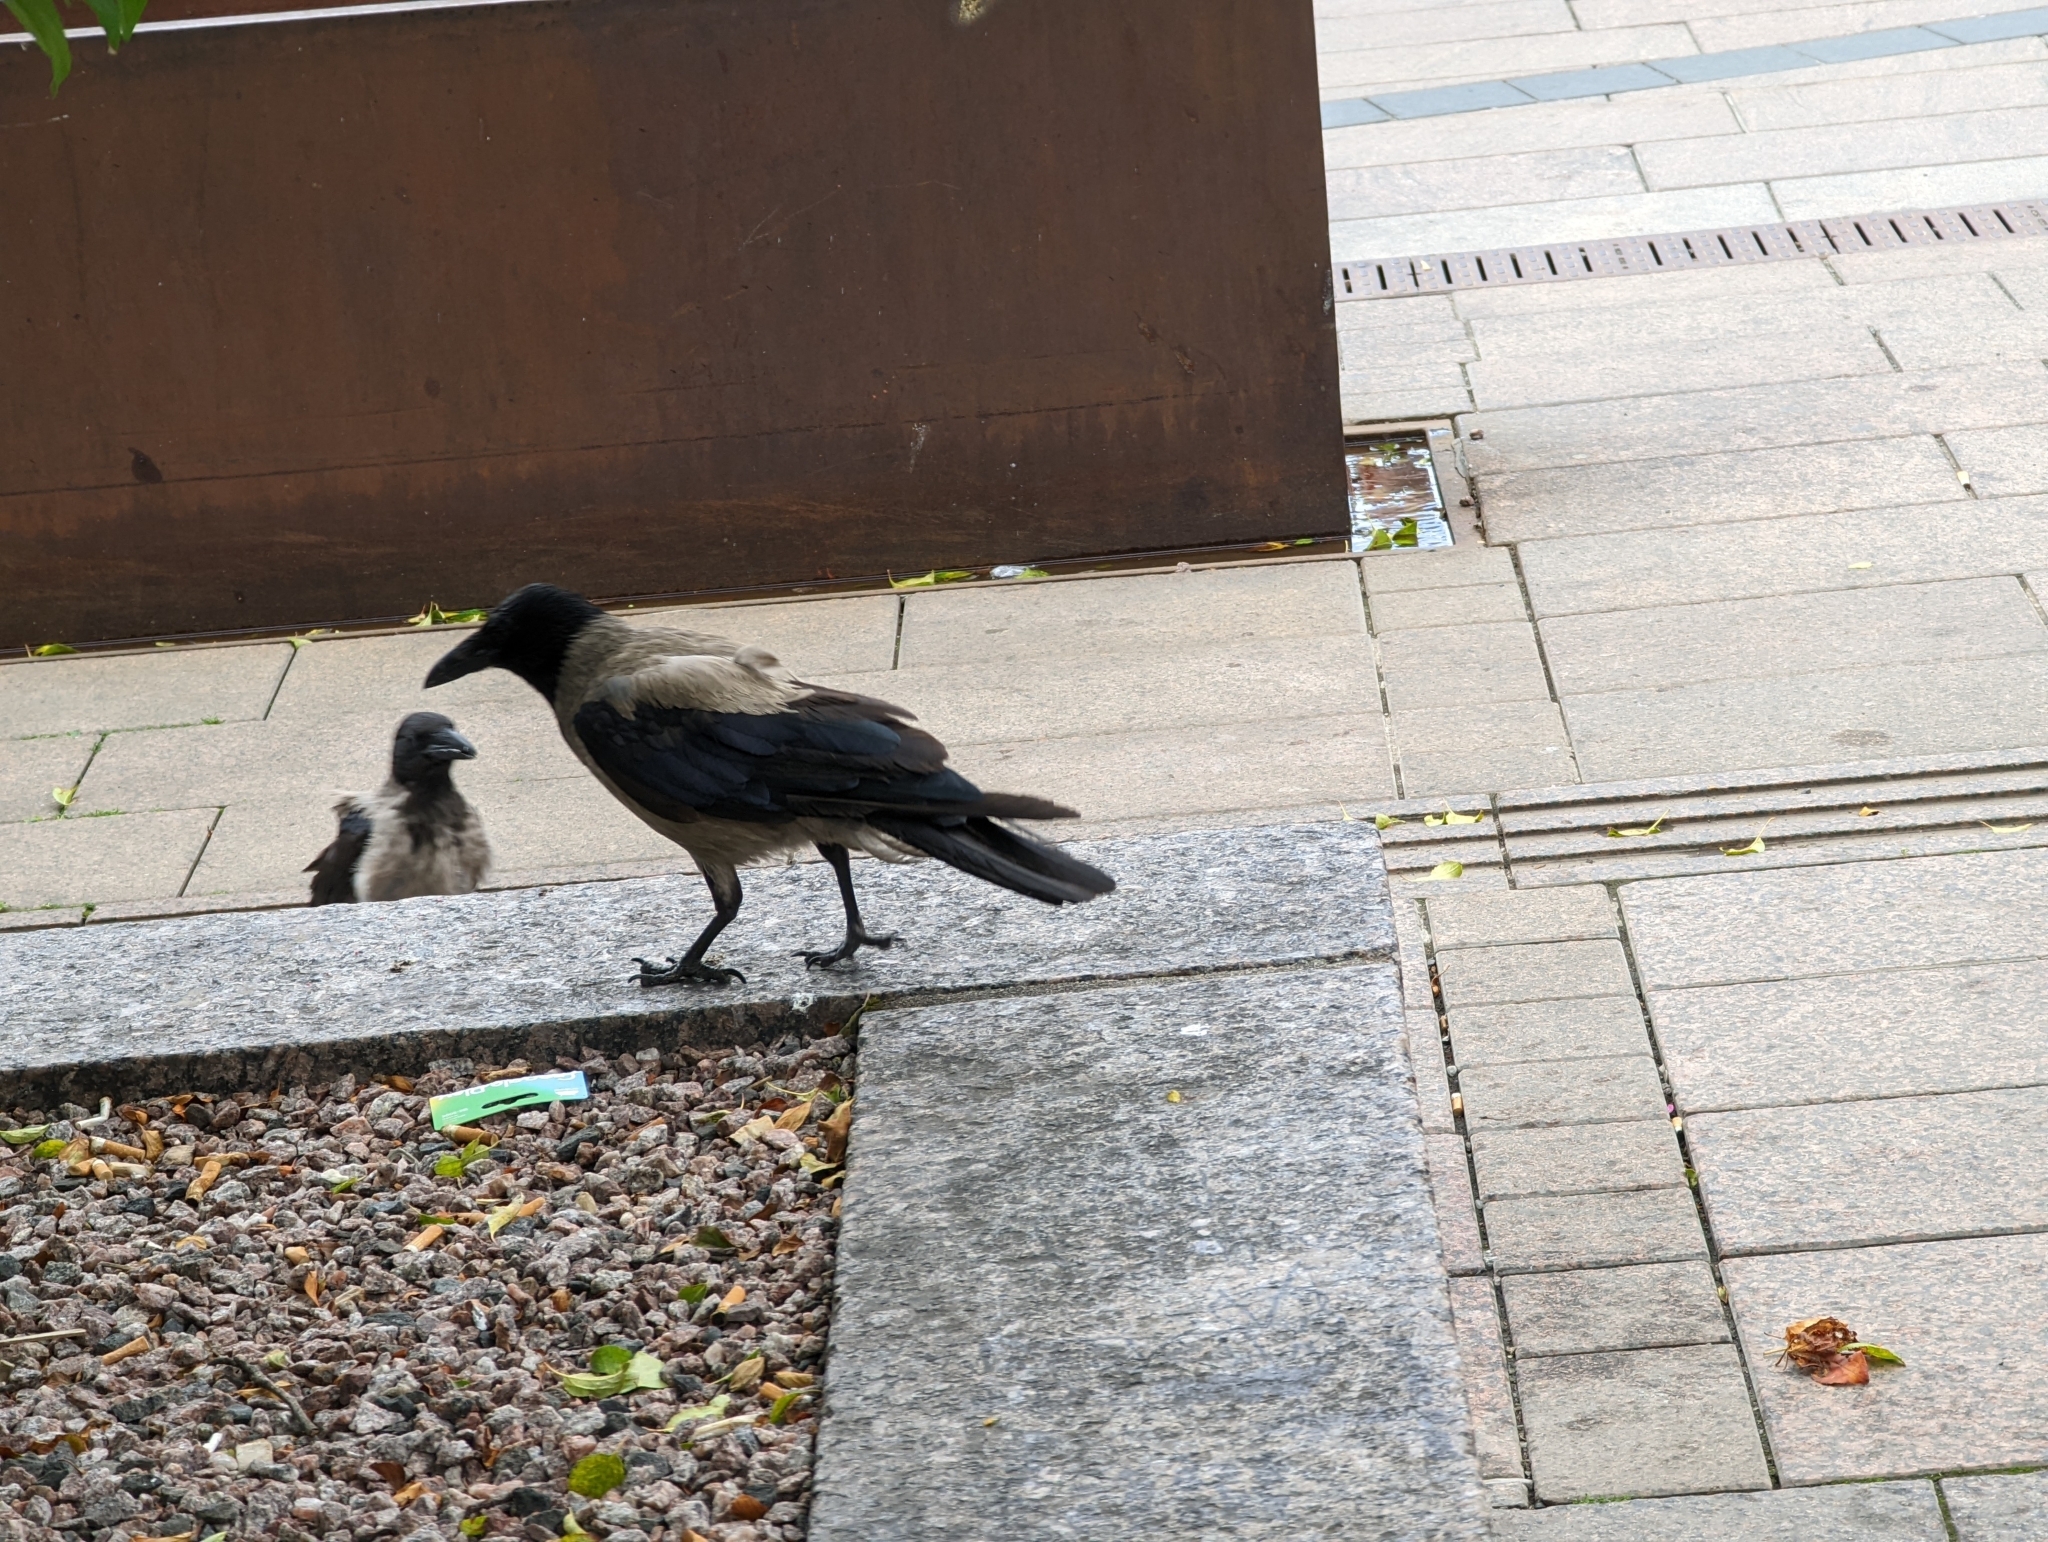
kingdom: Animalia
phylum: Chordata
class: Aves
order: Passeriformes
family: Corvidae
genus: Corvus
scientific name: Corvus cornix
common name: Hooded crow
